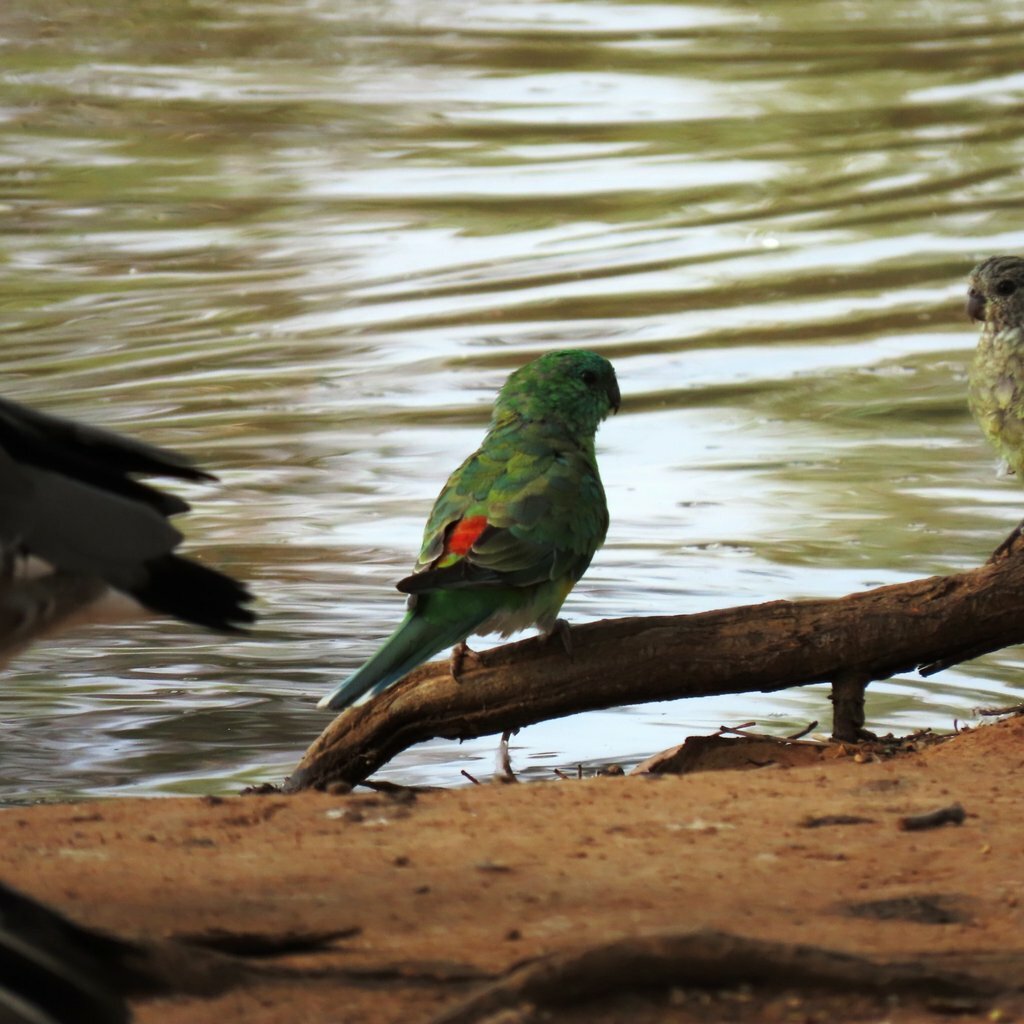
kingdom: Animalia
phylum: Chordata
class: Aves
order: Psittaciformes
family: Psittacidae
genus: Psephotus
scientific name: Psephotus haematonotus
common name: Red-rumped parrot
